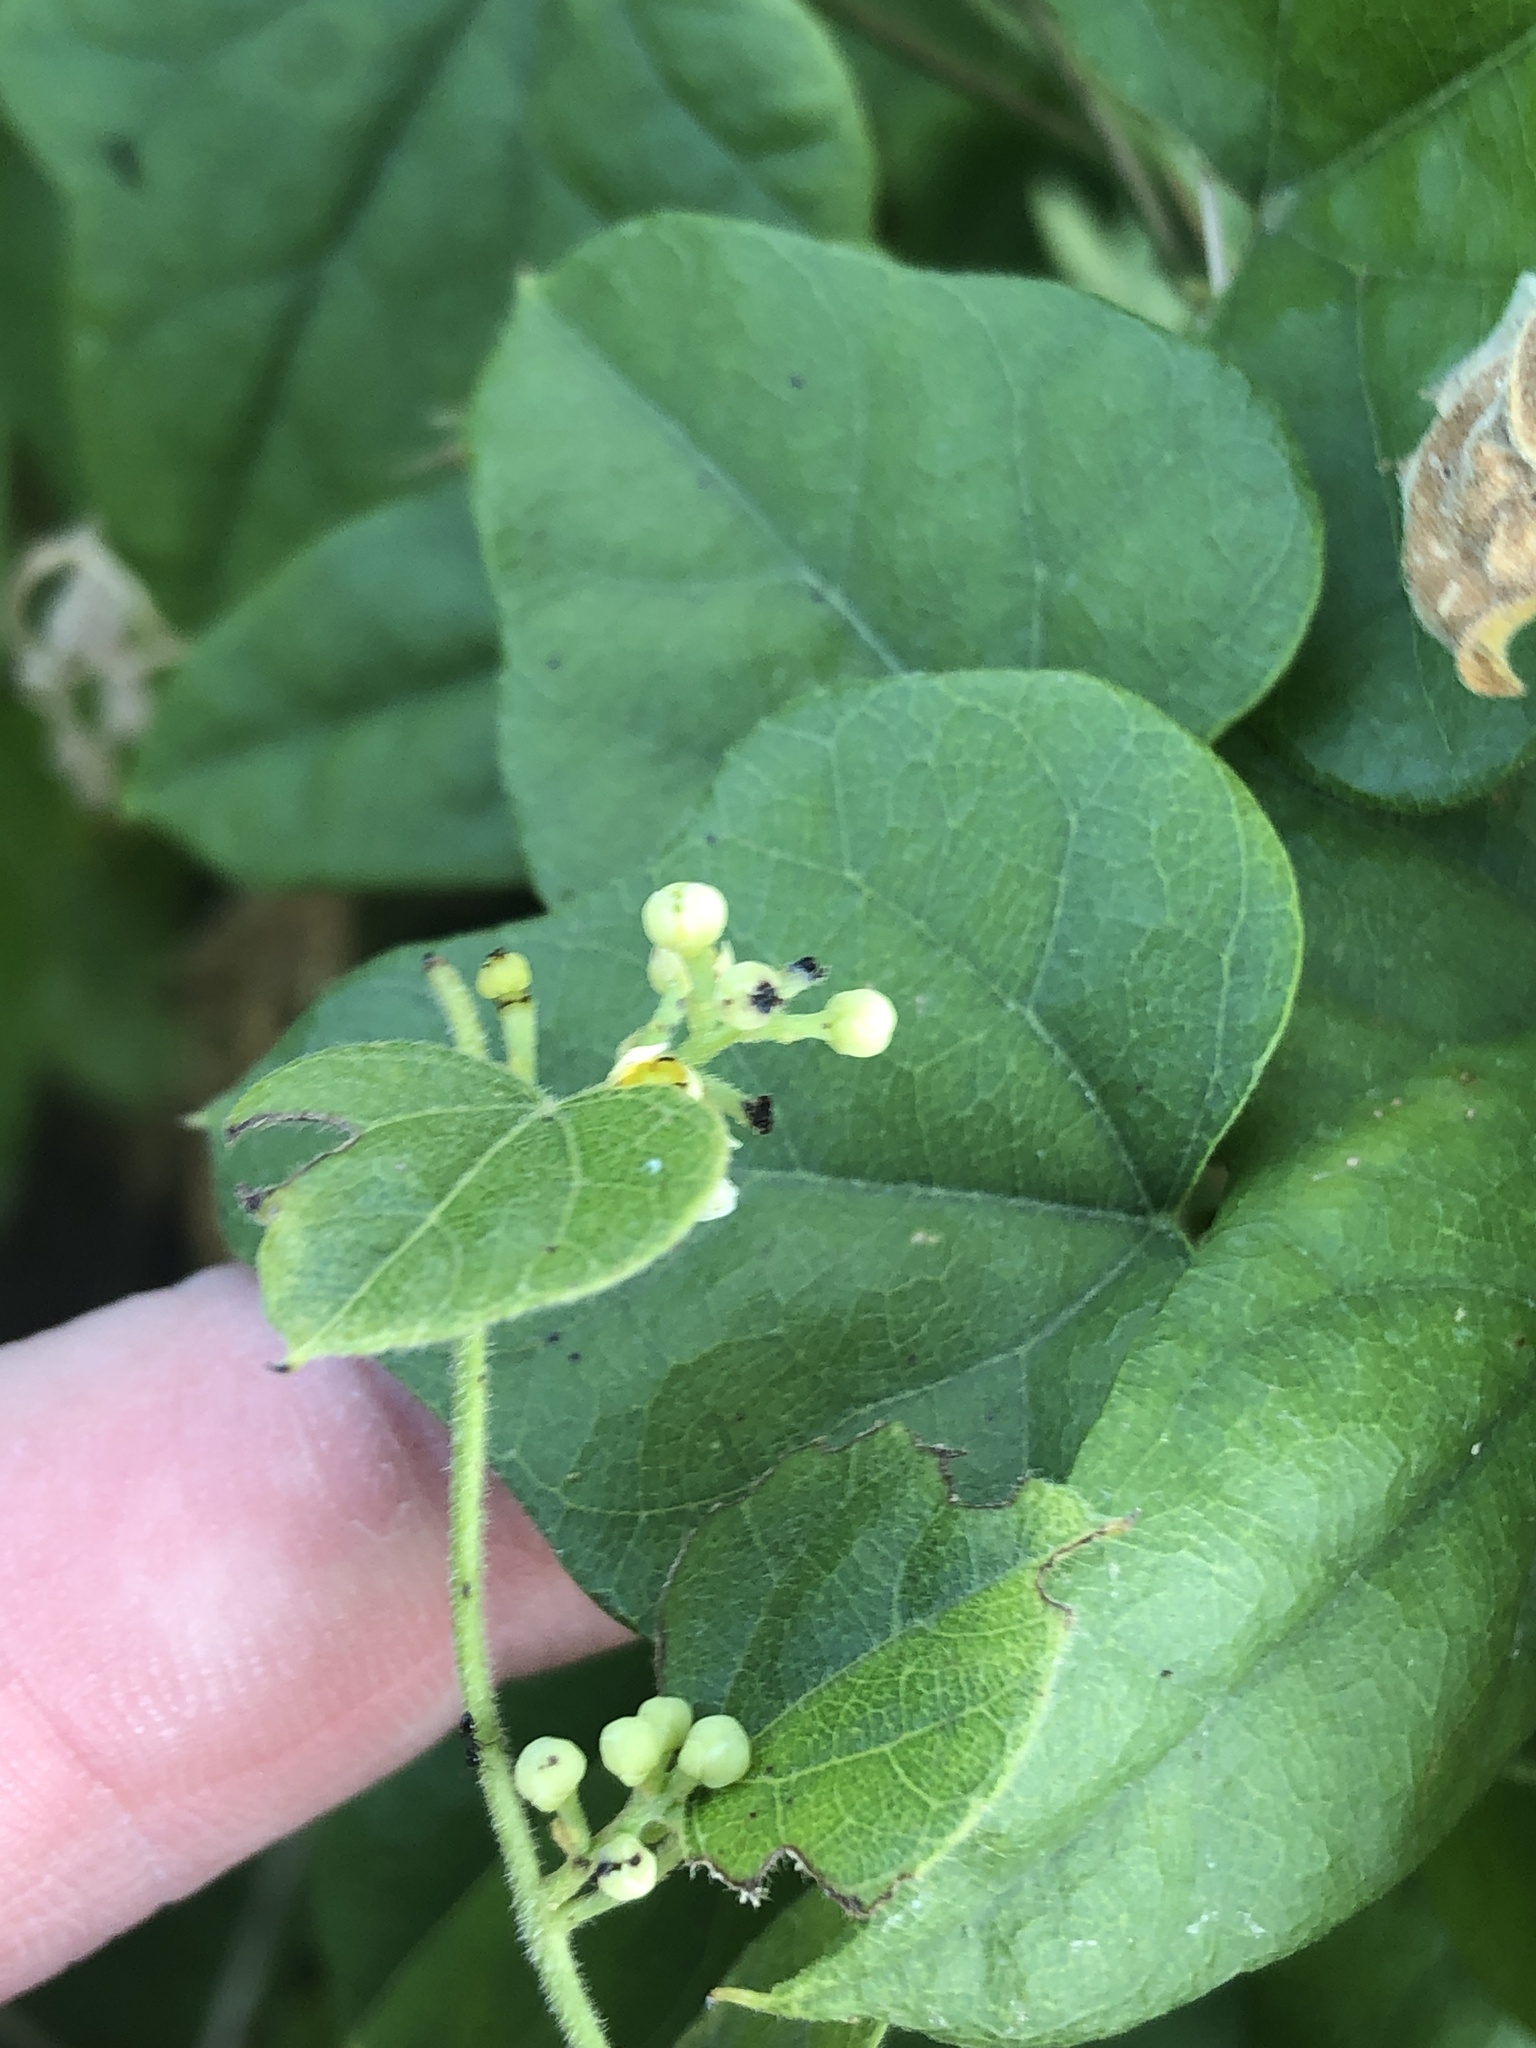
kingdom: Plantae
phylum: Tracheophyta
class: Magnoliopsida
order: Ranunculales
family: Menispermaceae
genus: Cocculus
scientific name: Cocculus carolinus
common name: Carolina moonseed
